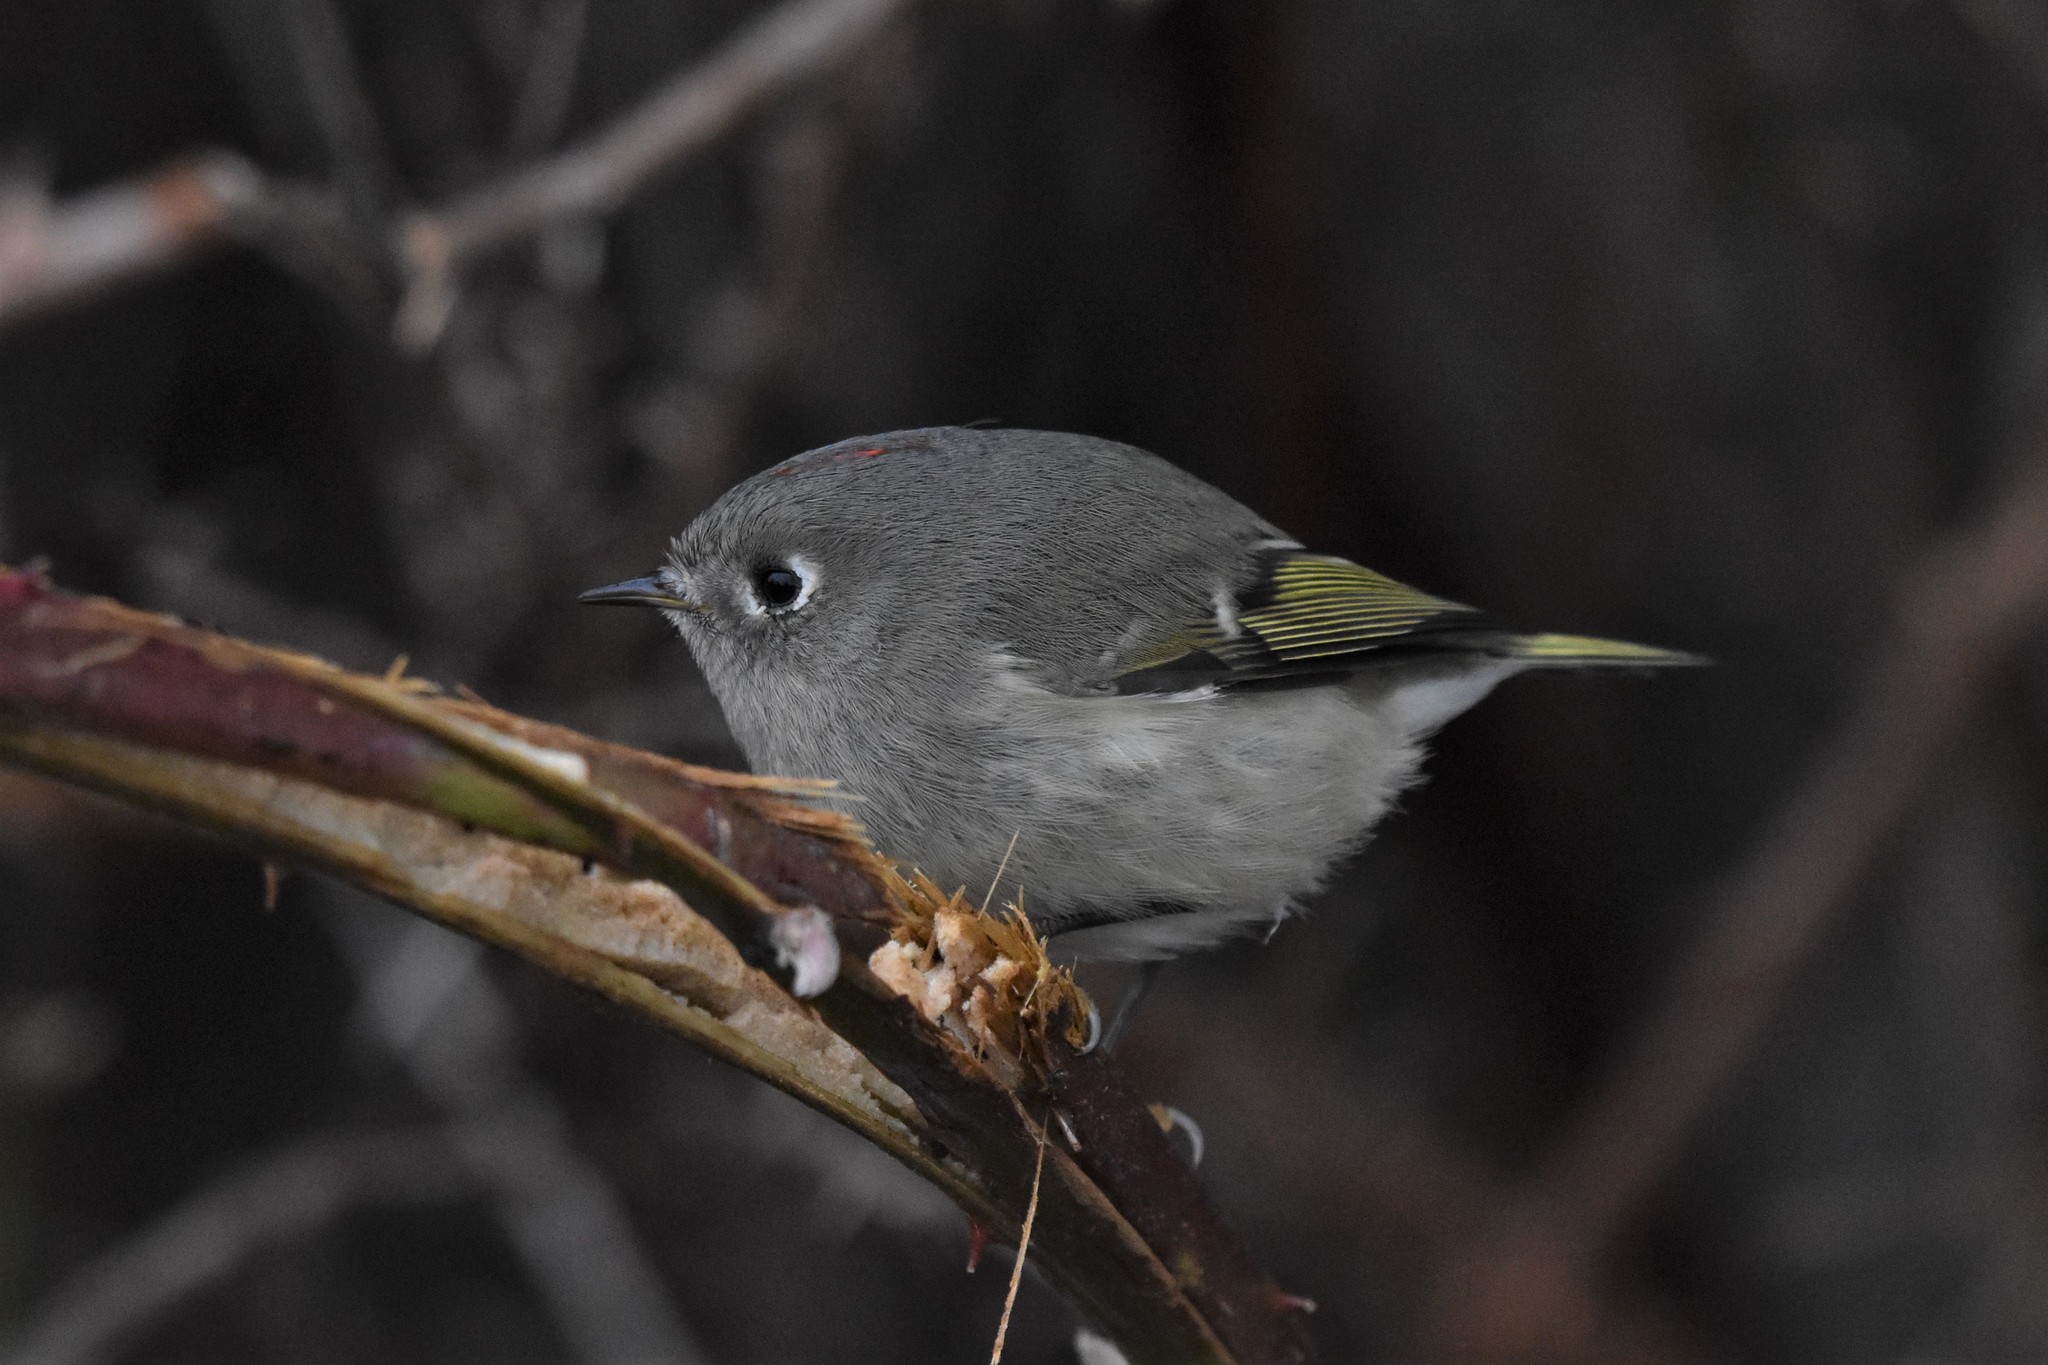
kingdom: Animalia
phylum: Chordata
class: Aves
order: Passeriformes
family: Regulidae
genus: Regulus
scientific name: Regulus calendula
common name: Ruby-crowned kinglet
